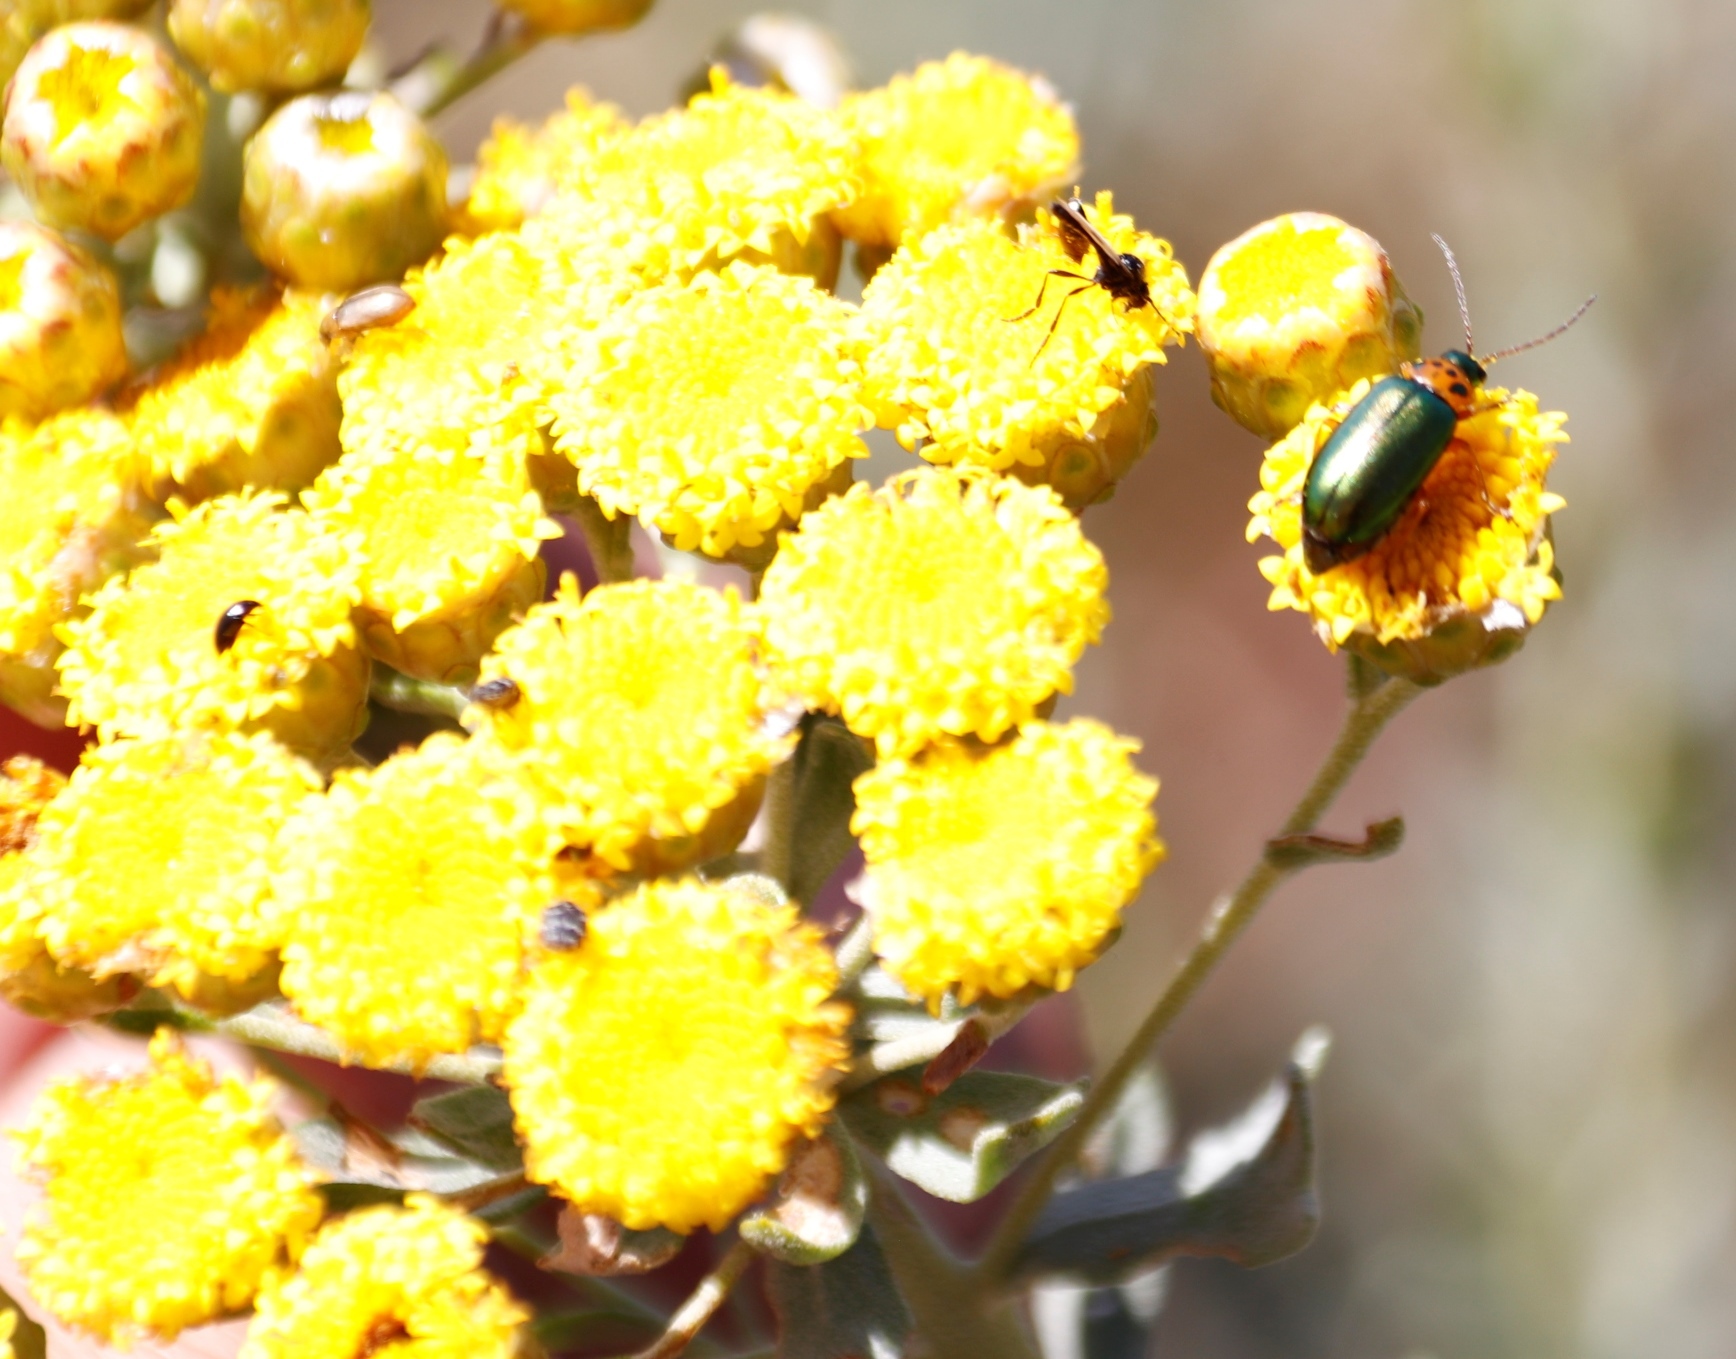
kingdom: Animalia
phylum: Arthropoda
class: Insecta
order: Coleoptera
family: Oedemeridae
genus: Melananthia
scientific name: Melananthia
